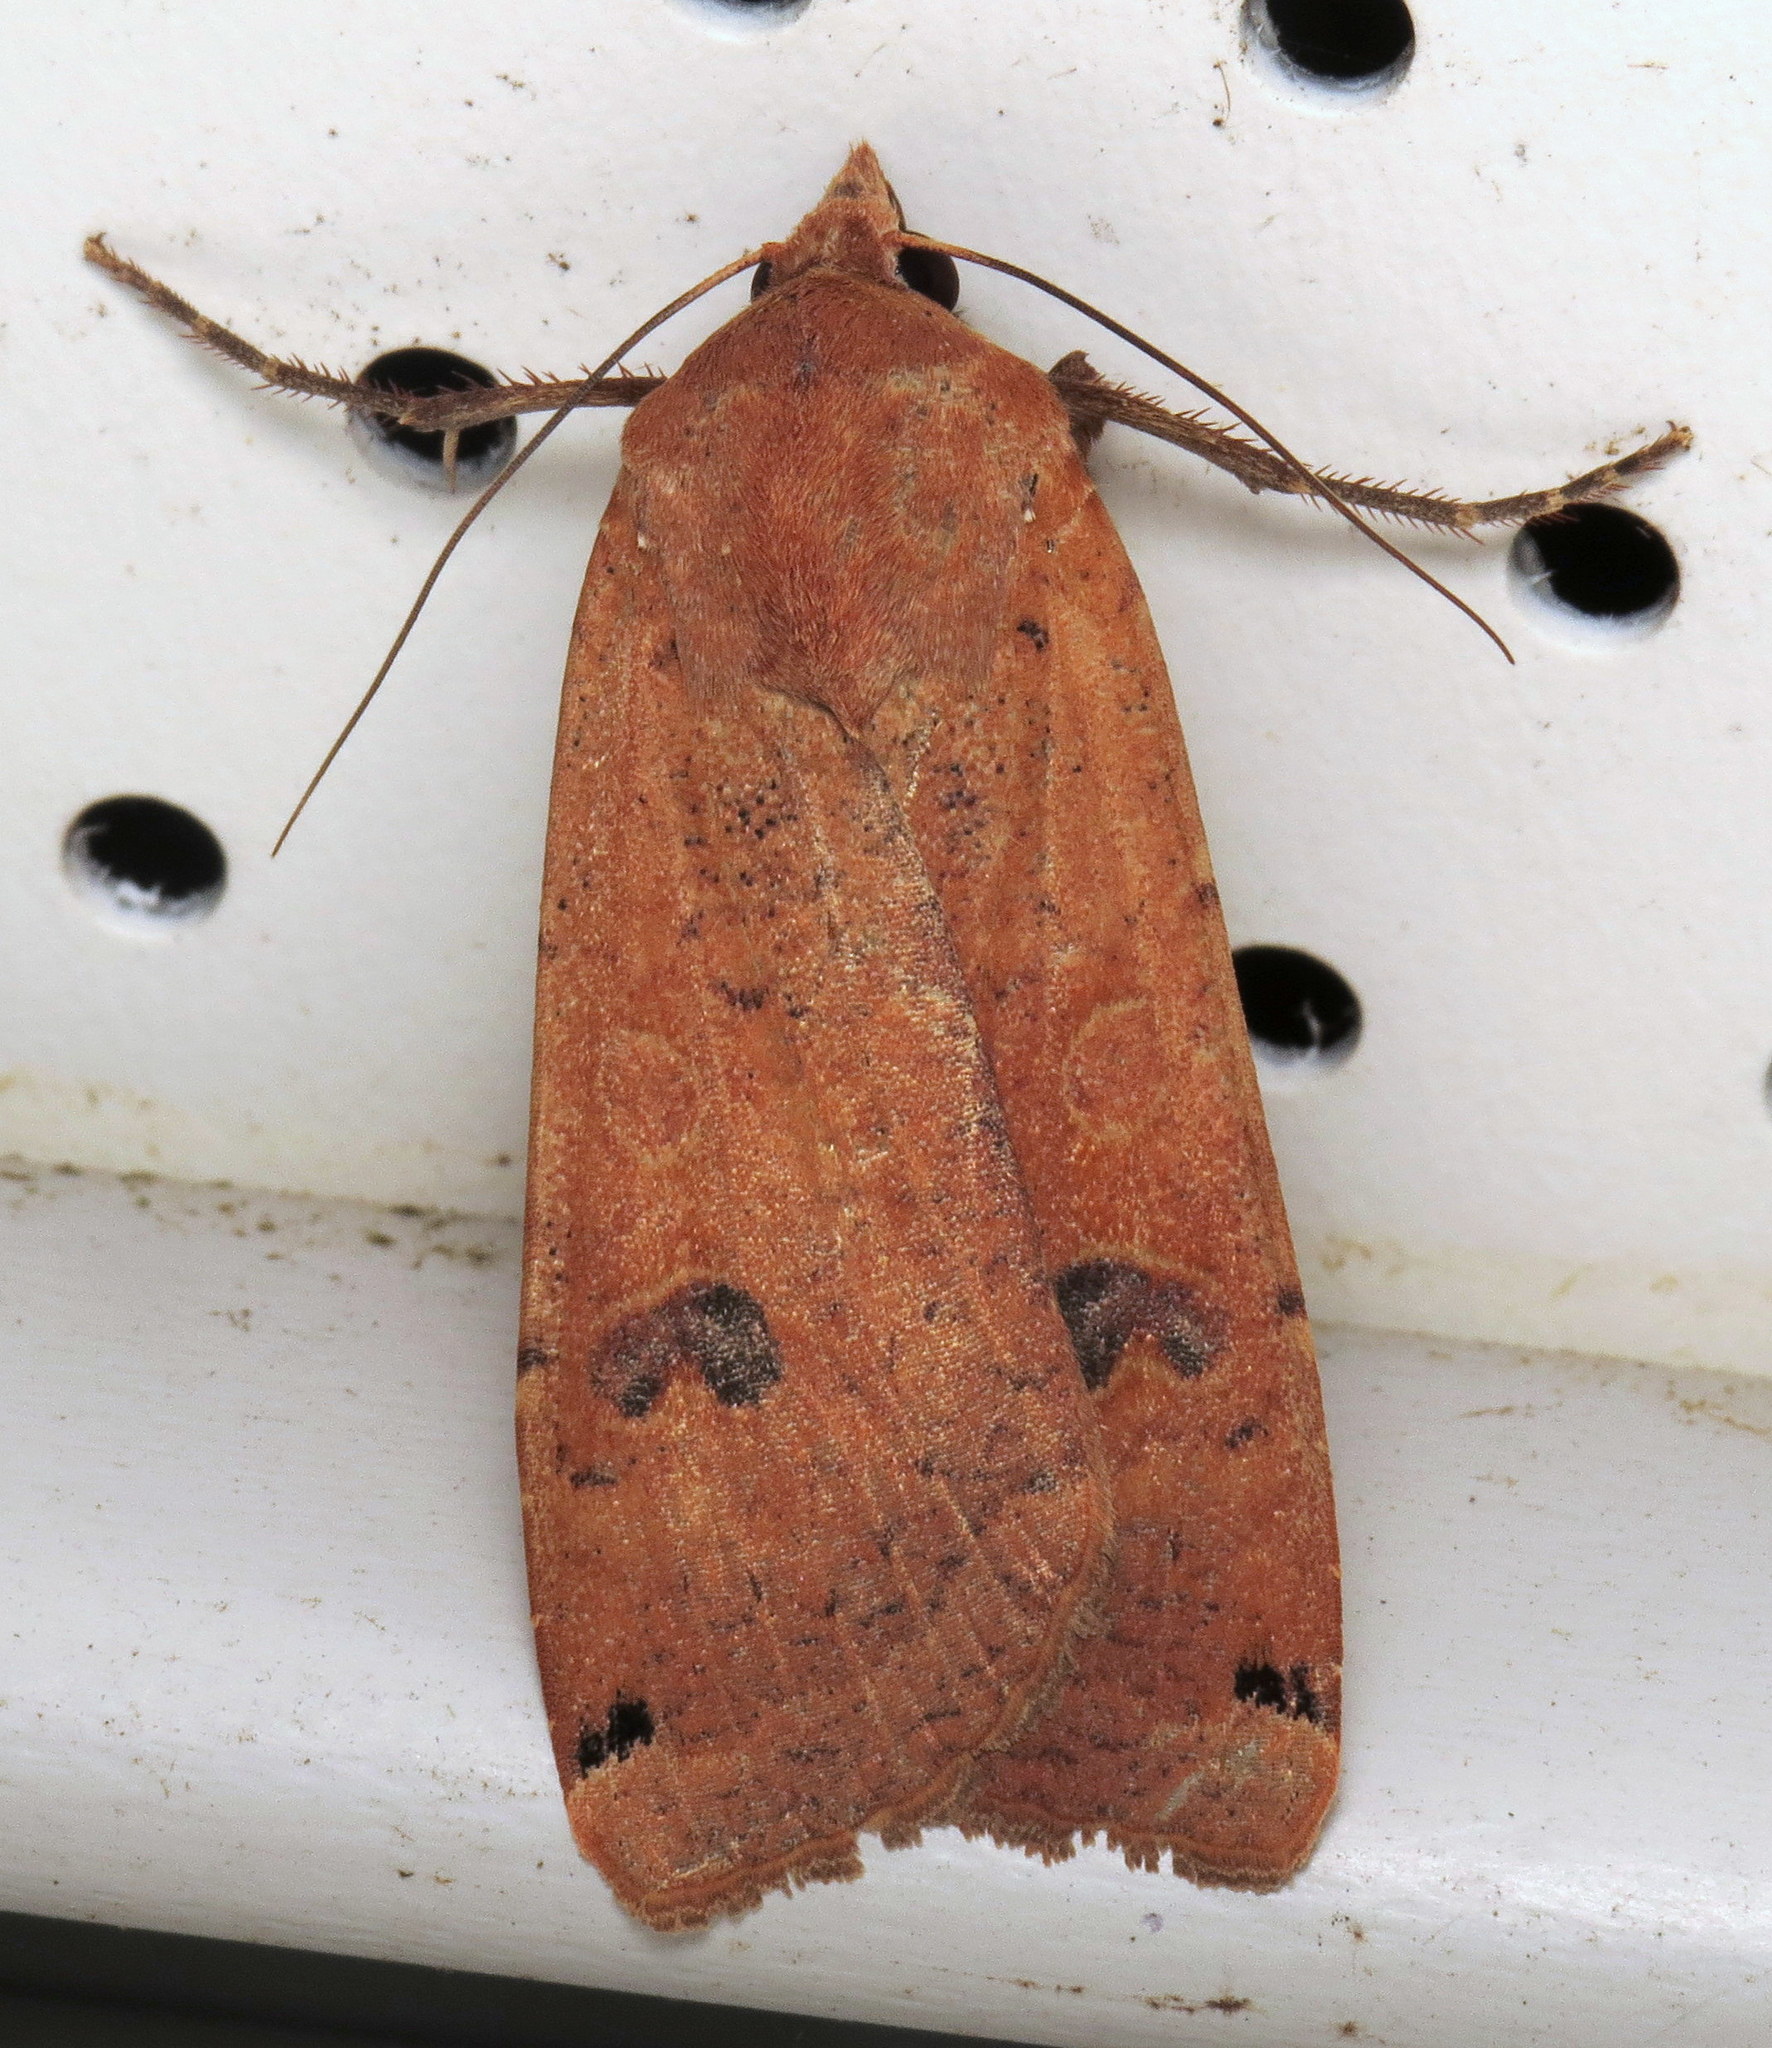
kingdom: Animalia
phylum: Arthropoda
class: Insecta
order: Lepidoptera
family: Noctuidae
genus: Noctua
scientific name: Noctua pronuba
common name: Large yellow underwing
